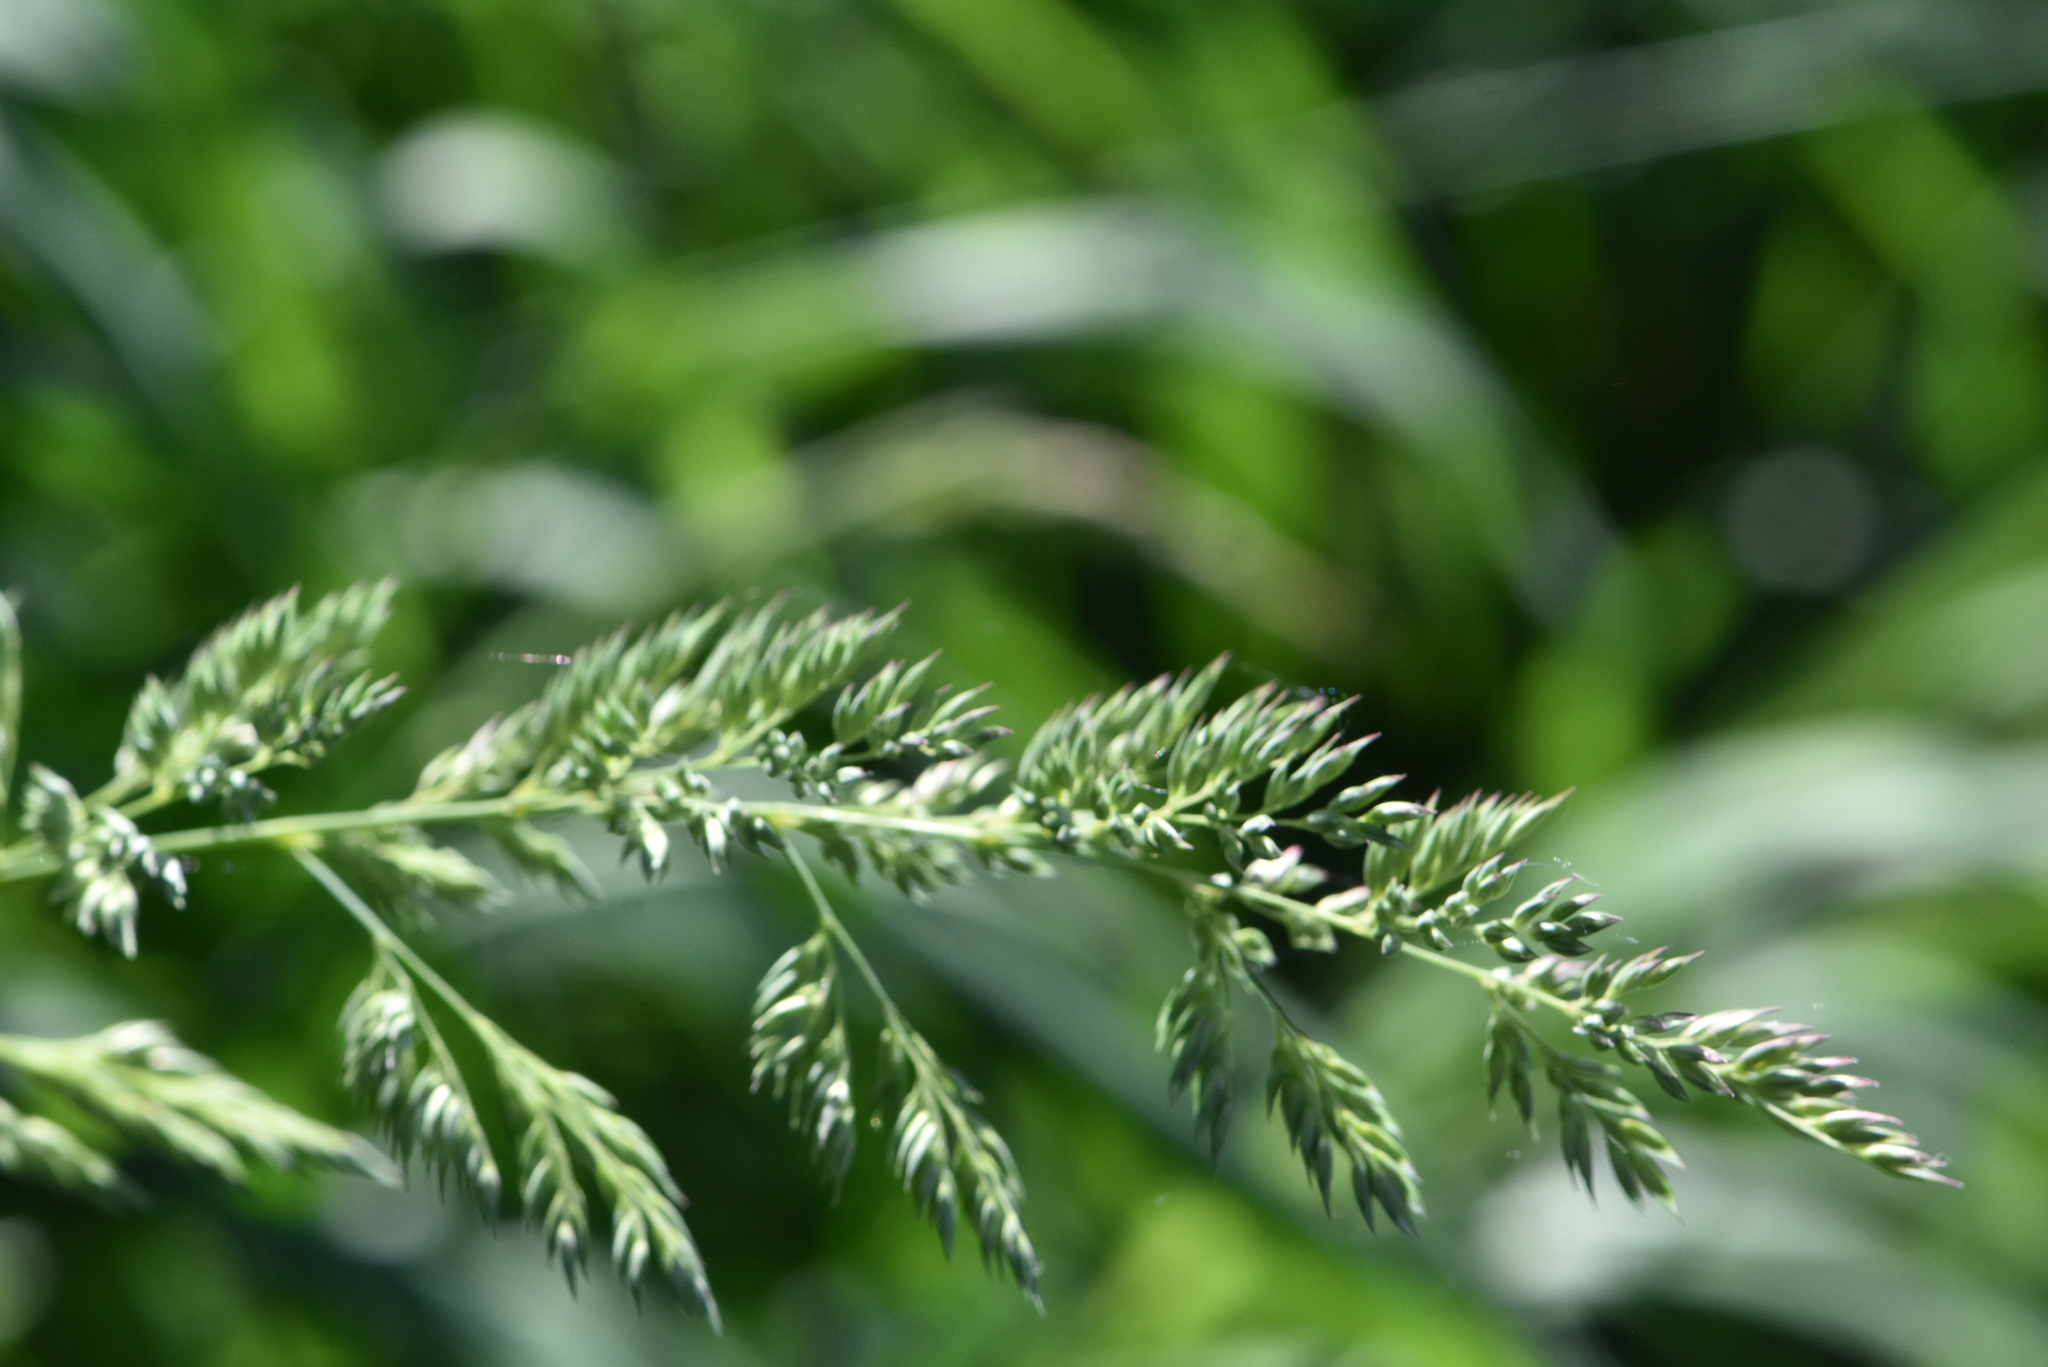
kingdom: Plantae
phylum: Tracheophyta
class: Liliopsida
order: Poales
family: Poaceae
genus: Phalaris
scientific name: Phalaris arundinacea
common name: Reed canary-grass
